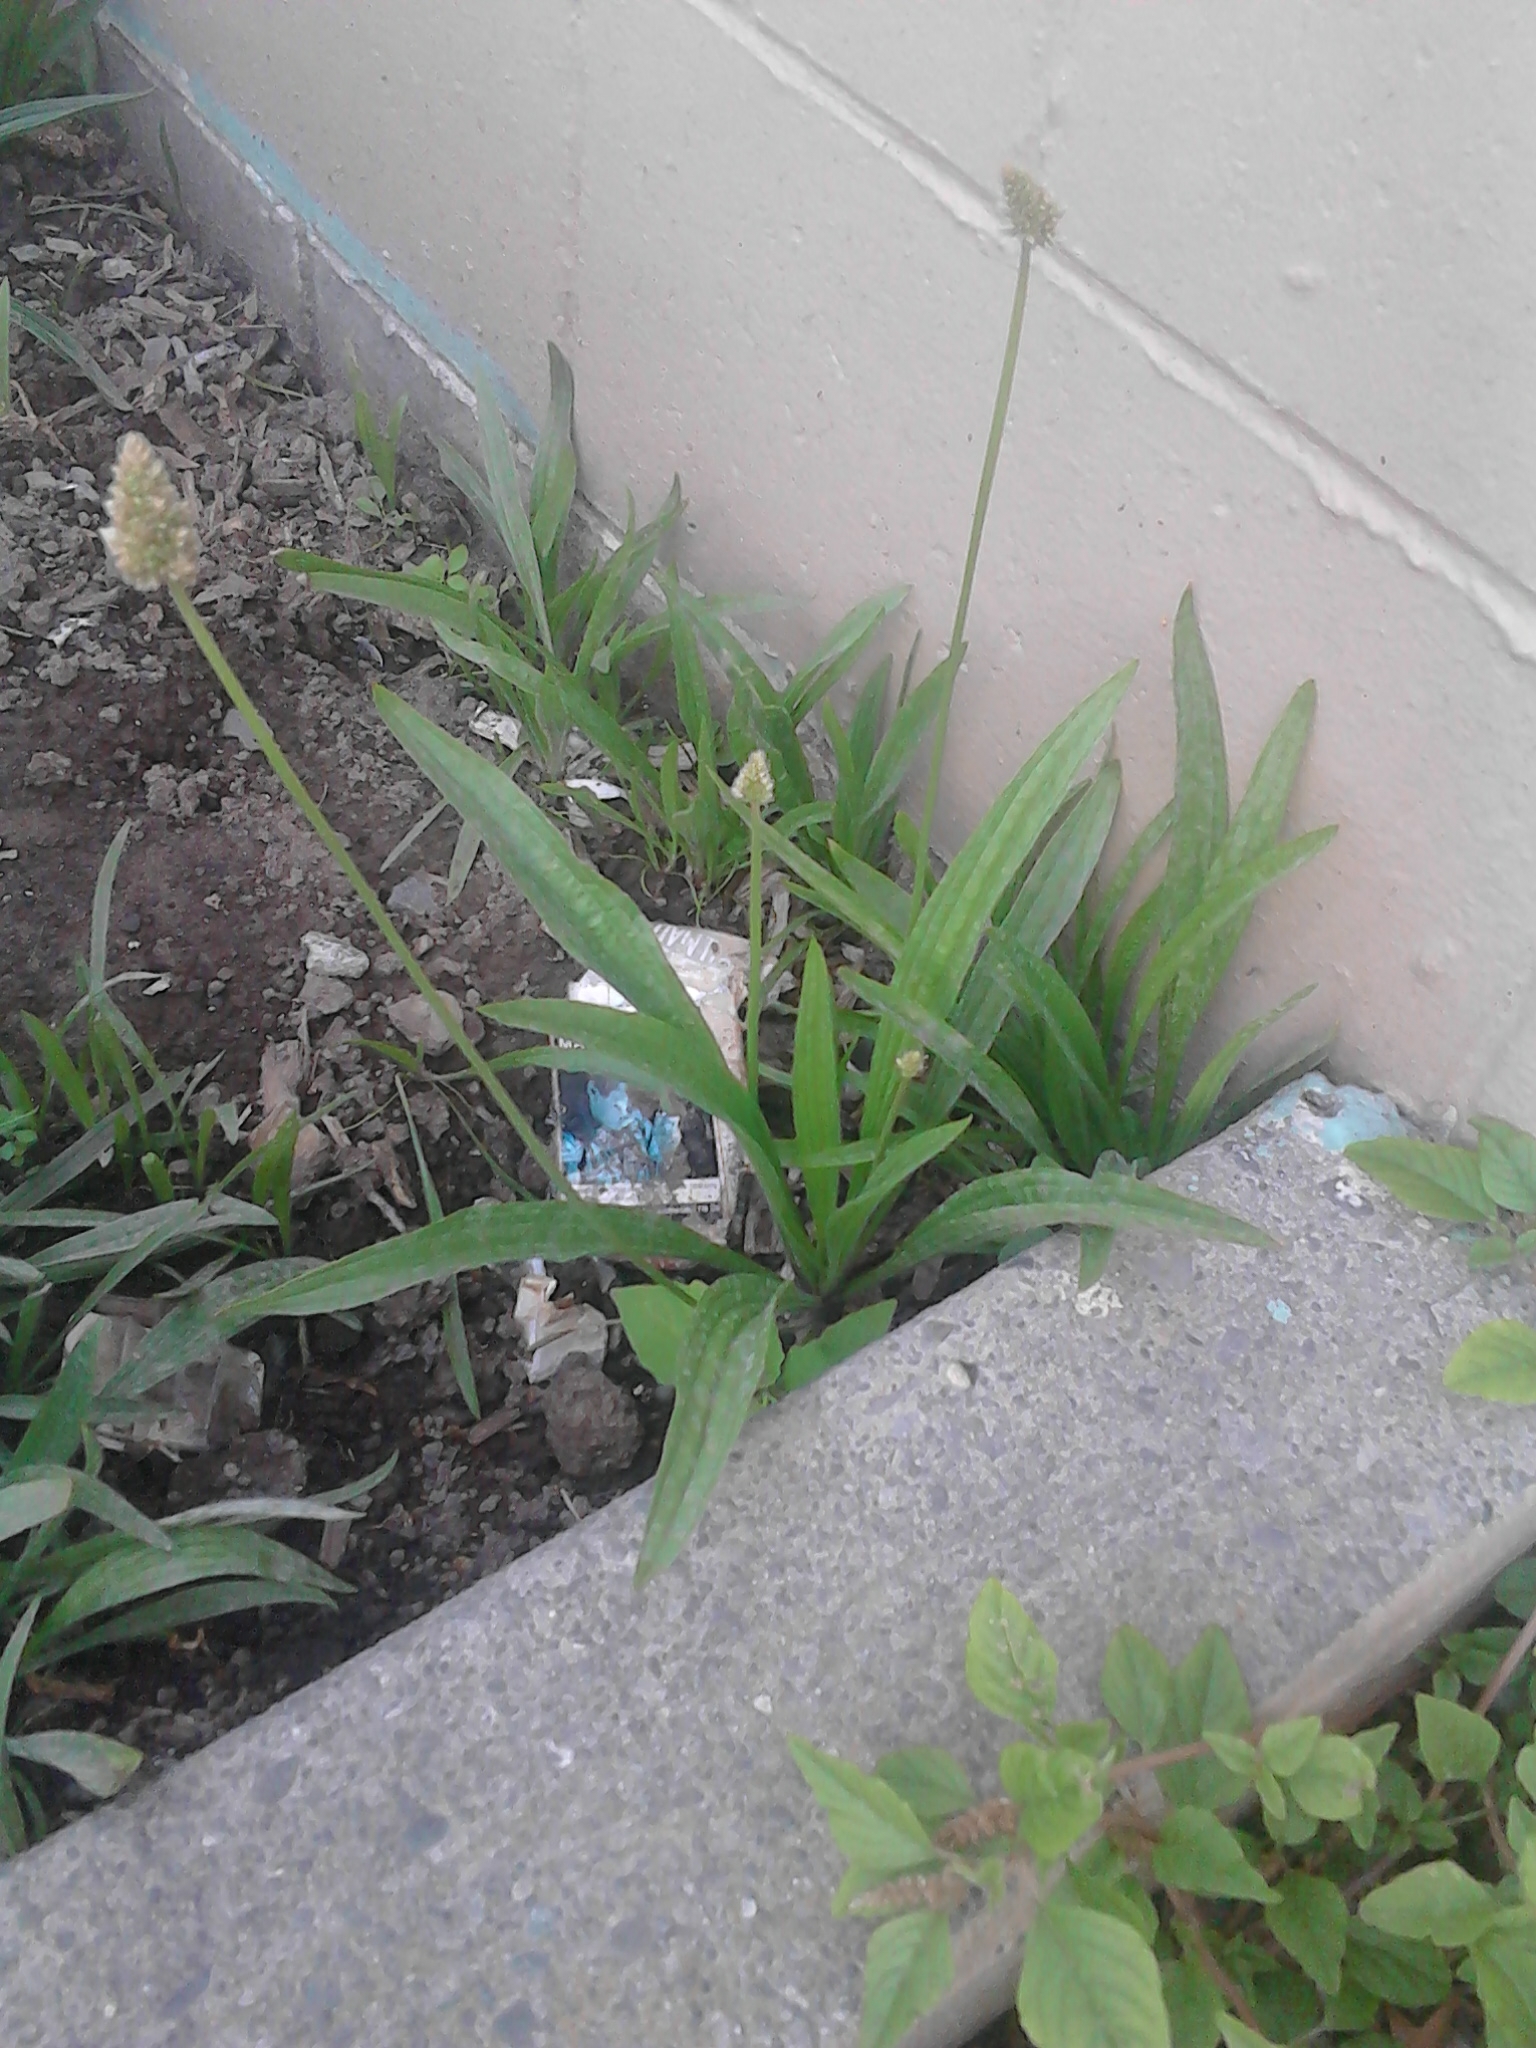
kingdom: Plantae
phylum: Tracheophyta
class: Magnoliopsida
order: Lamiales
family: Plantaginaceae
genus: Plantago
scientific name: Plantago lanceolata
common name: Ribwort plantain
